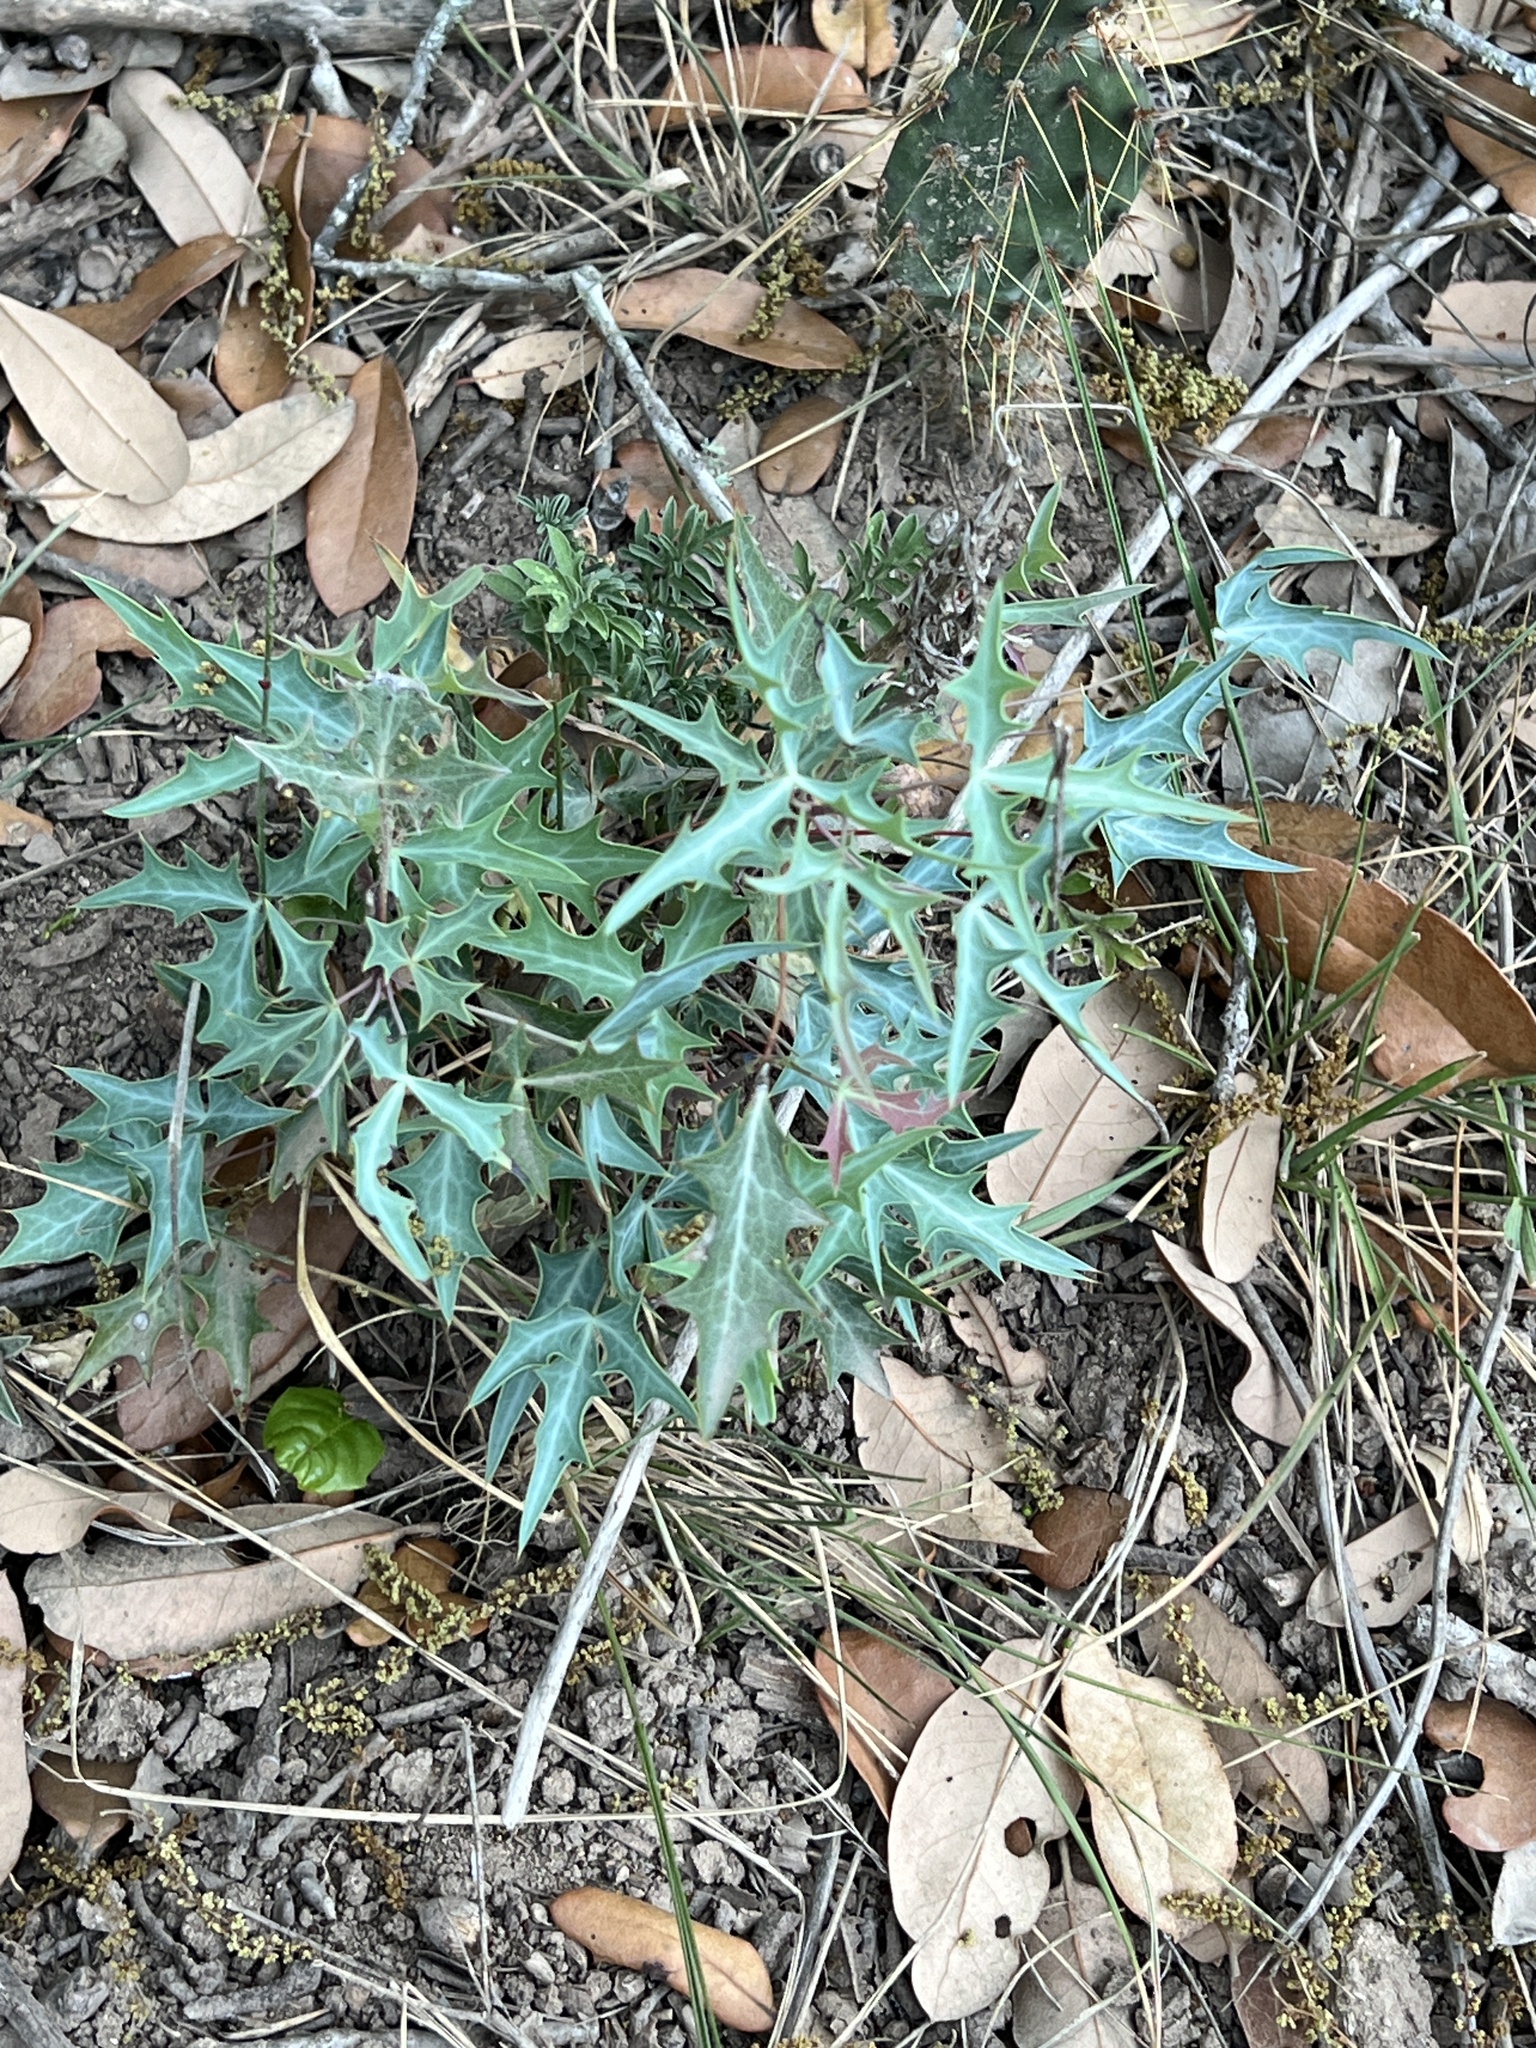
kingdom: Plantae
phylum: Tracheophyta
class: Magnoliopsida
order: Ranunculales
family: Berberidaceae
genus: Alloberberis
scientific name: Alloberberis trifoliolata
